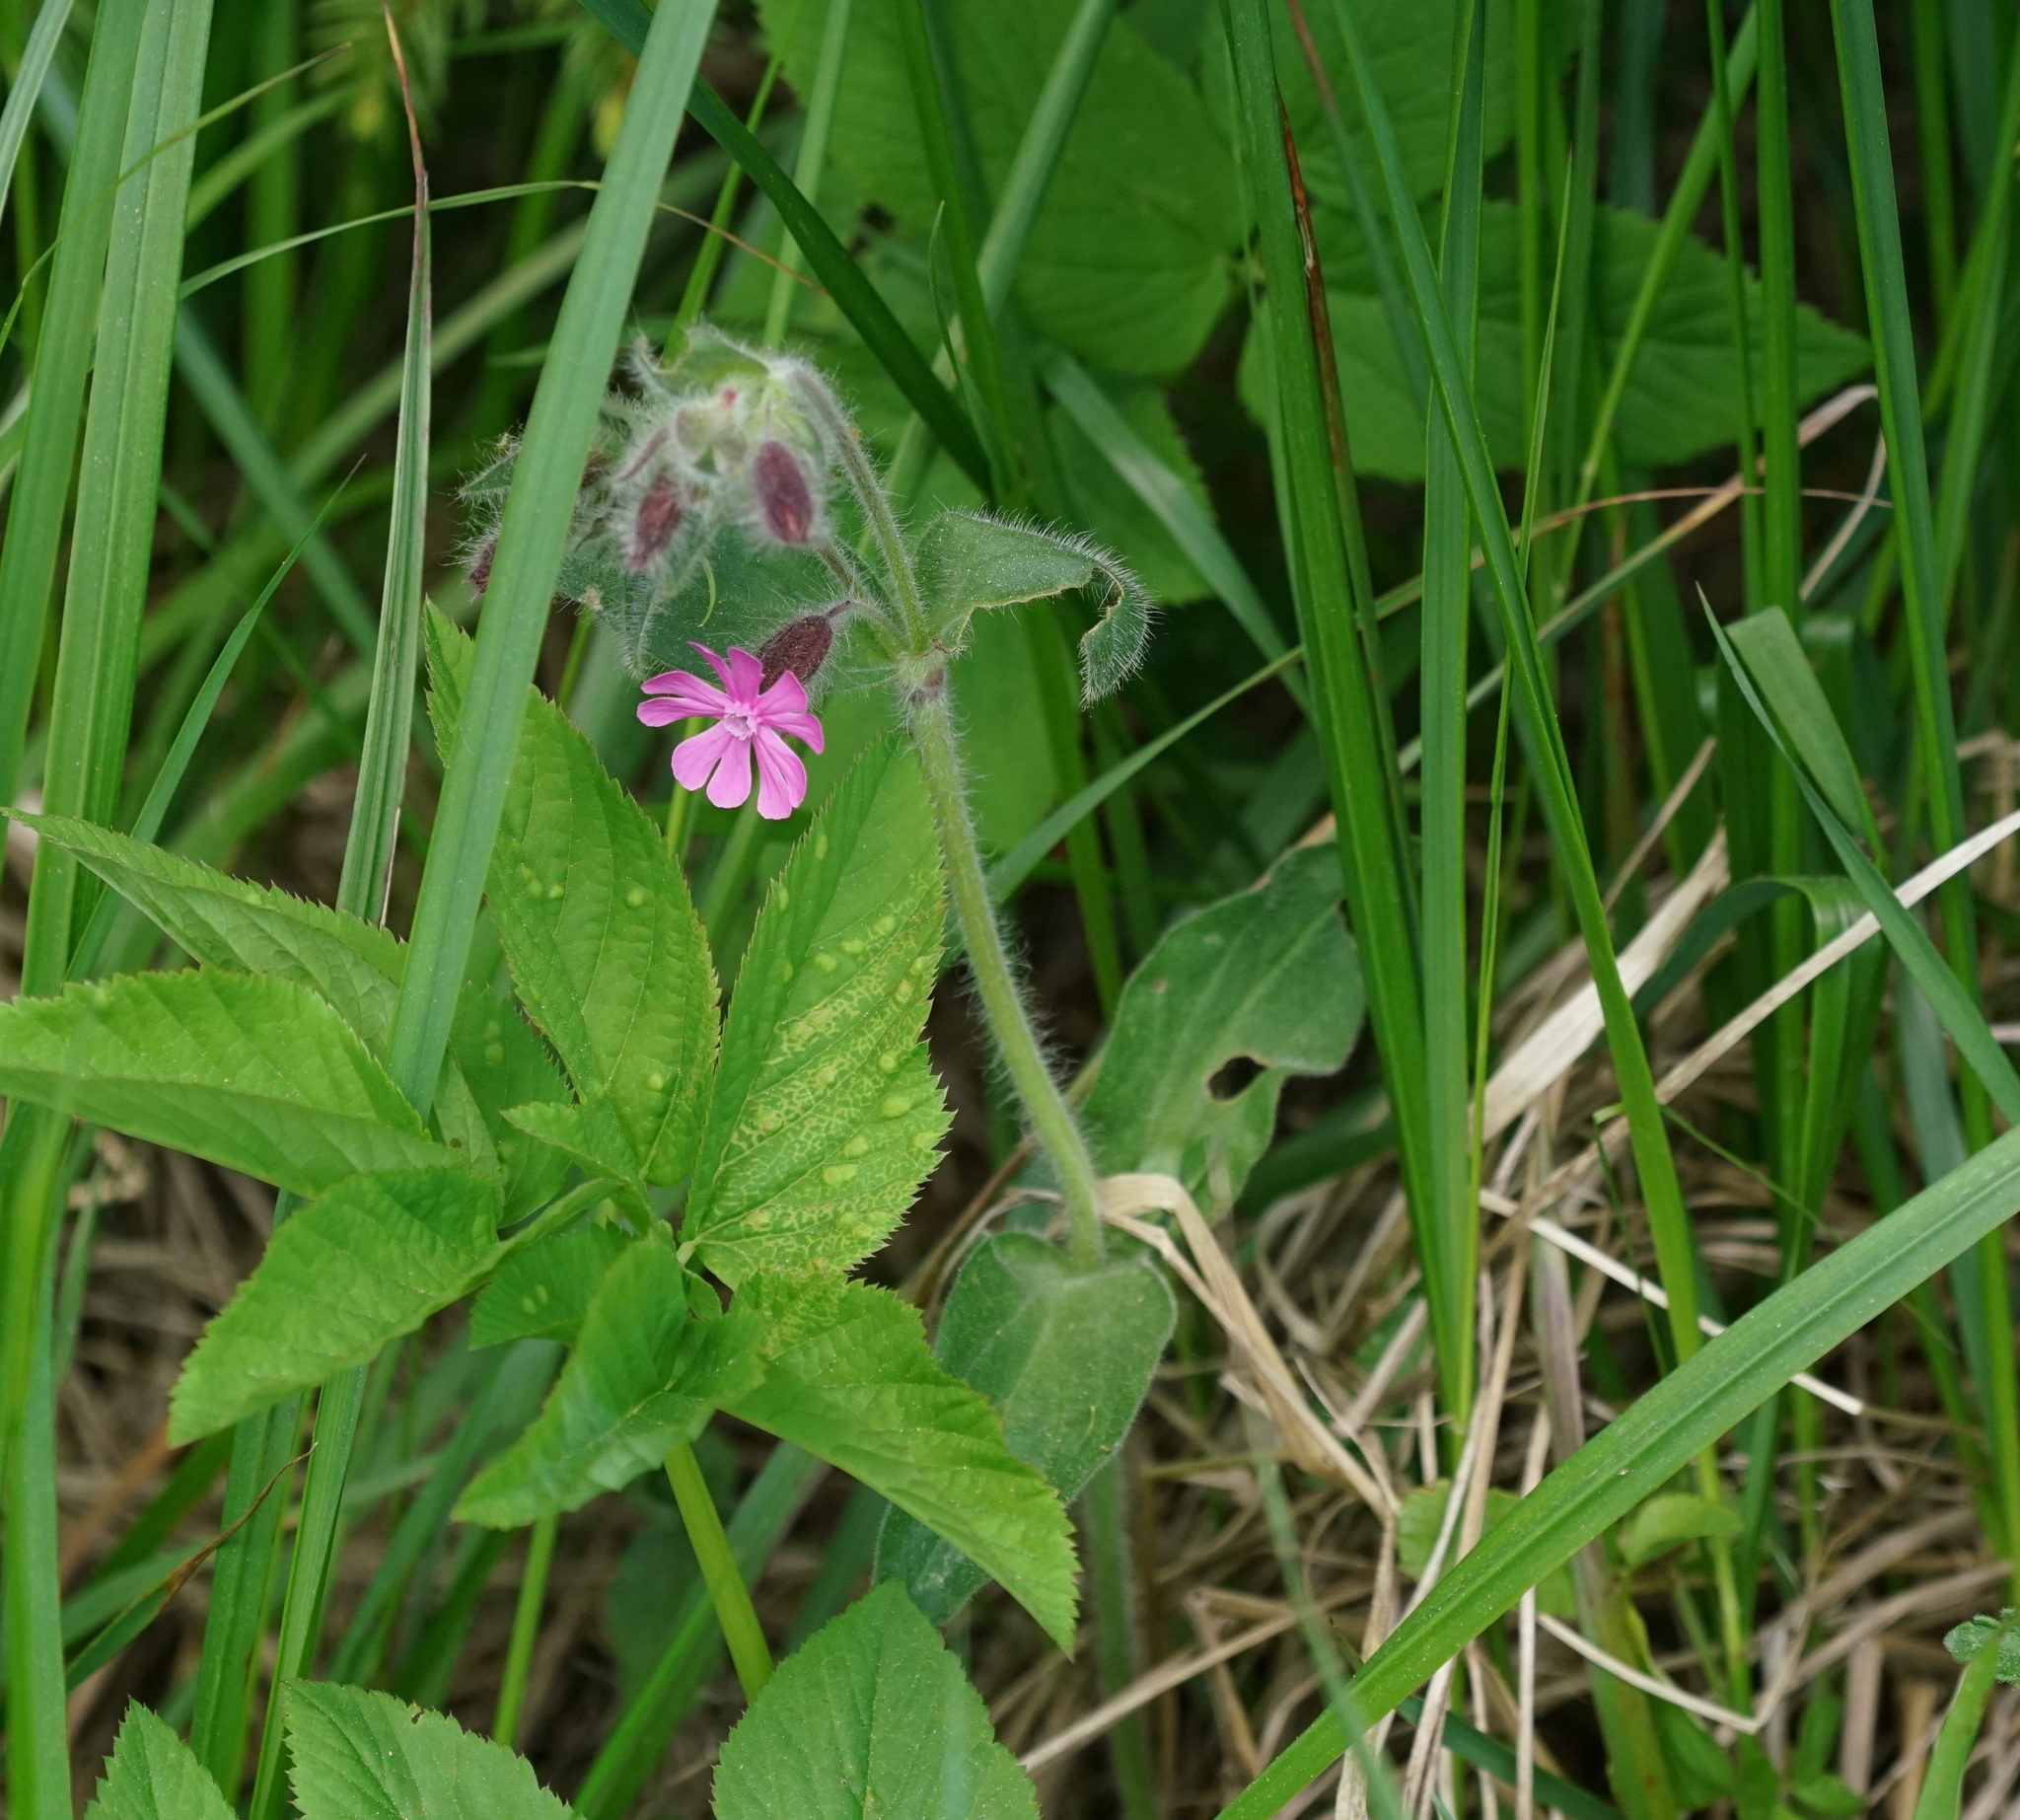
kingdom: Plantae
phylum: Tracheophyta
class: Magnoliopsida
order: Caryophyllales
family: Caryophyllaceae
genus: Silene
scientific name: Silene dioica
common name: Red campion
